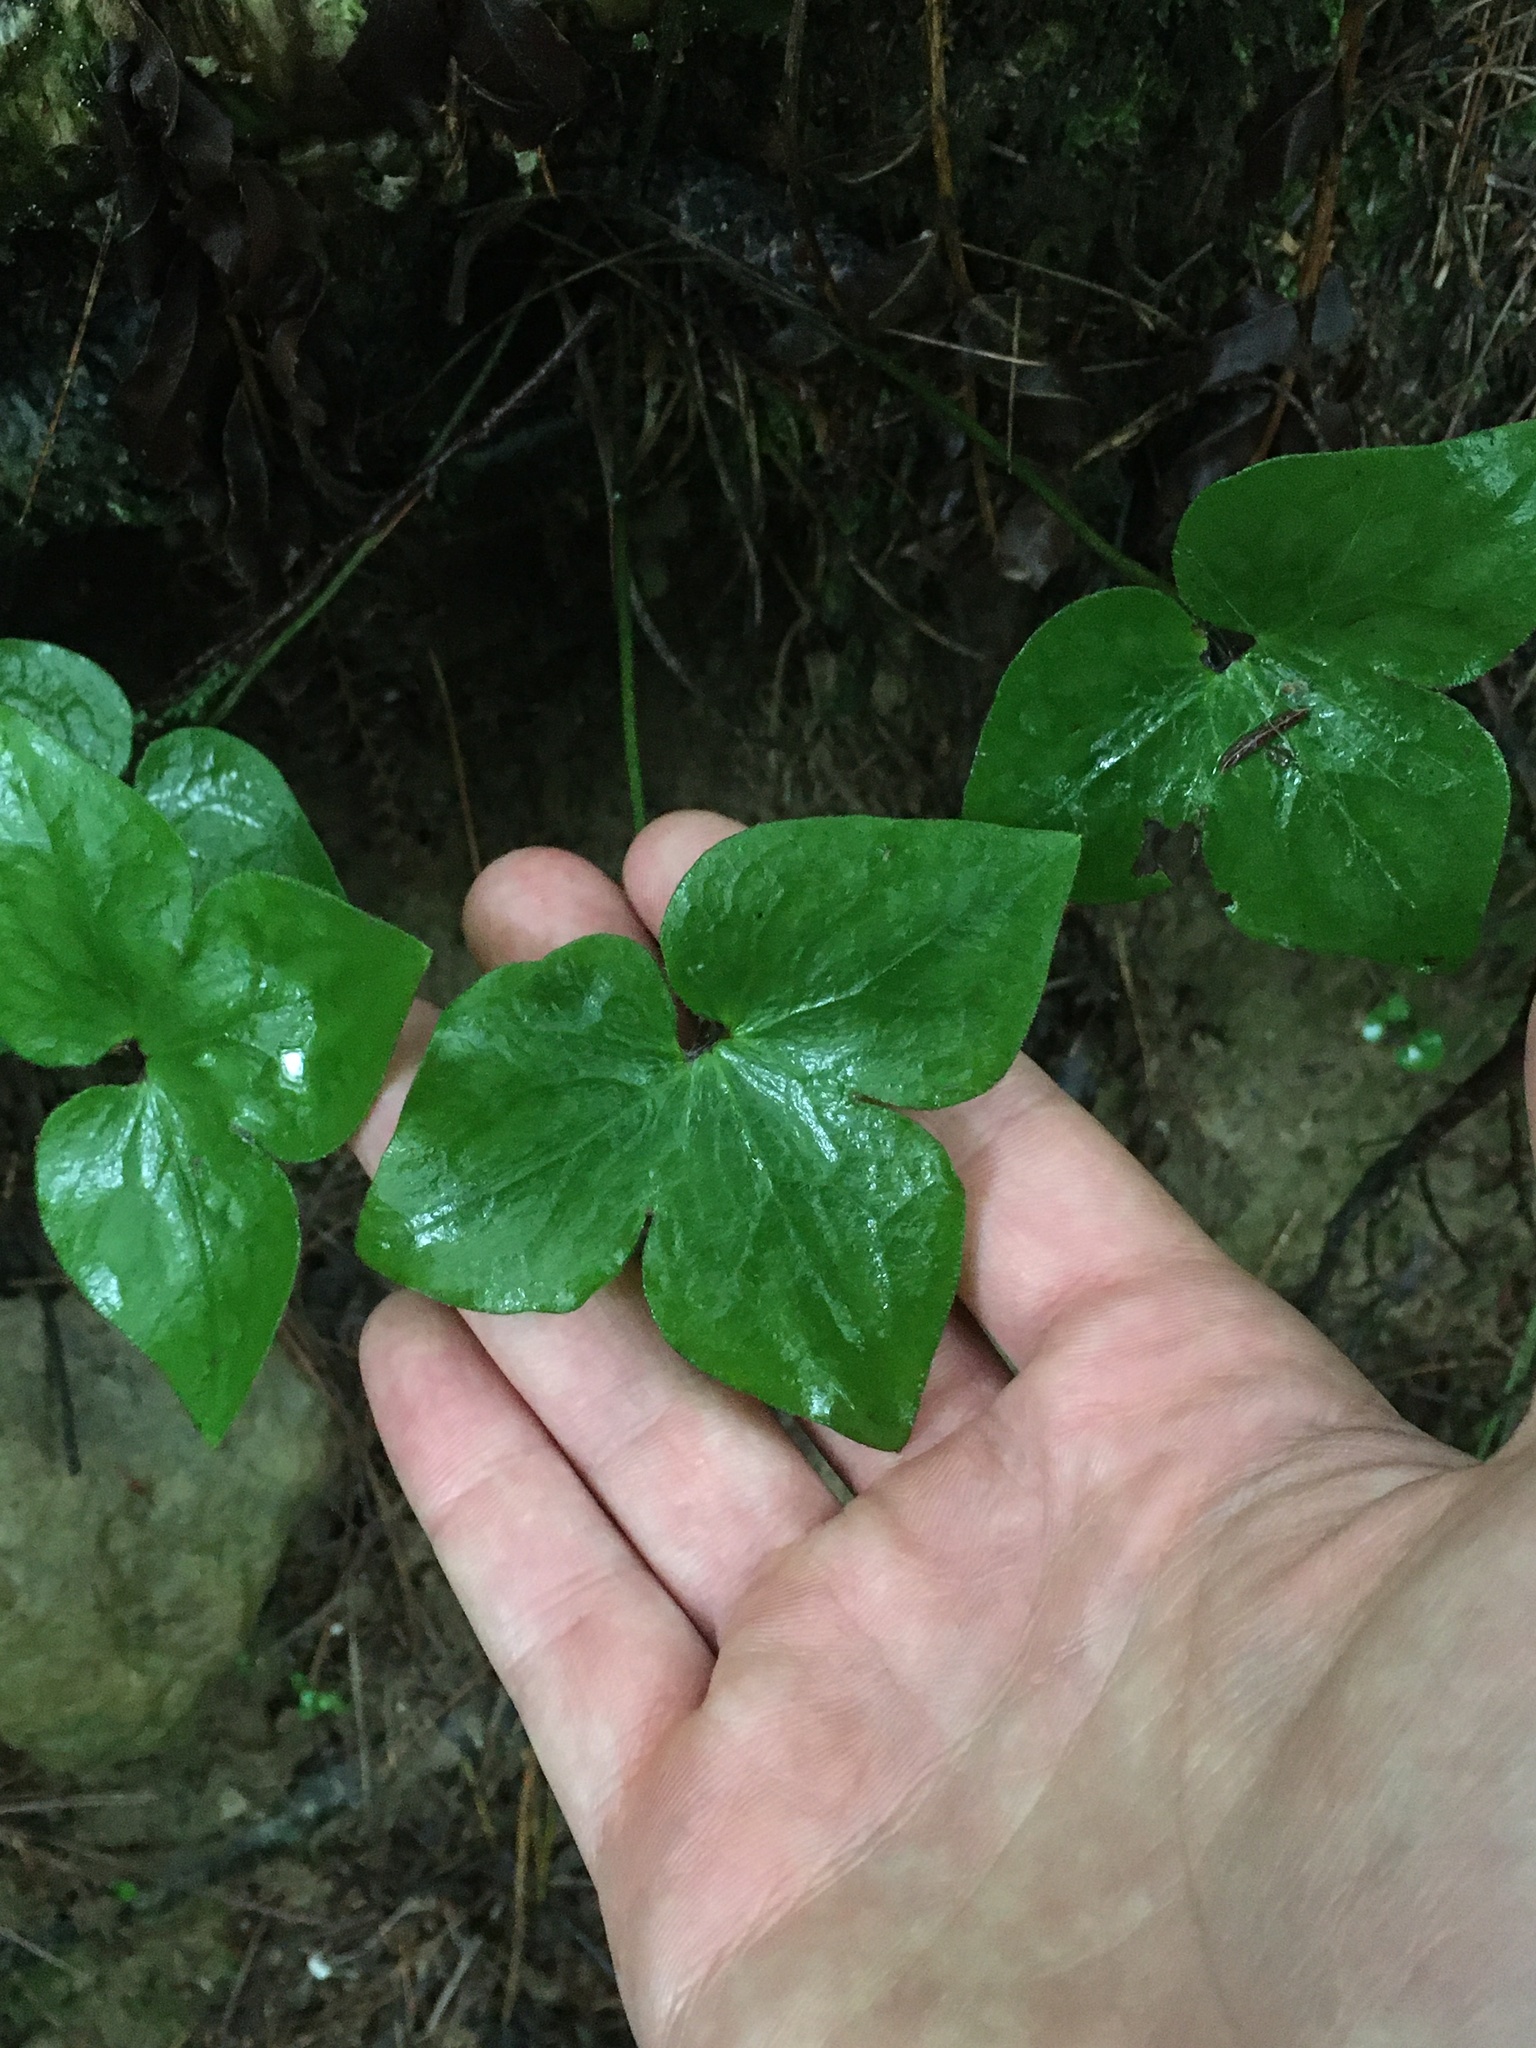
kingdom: Plantae
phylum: Tracheophyta
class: Magnoliopsida
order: Ranunculales
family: Ranunculaceae
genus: Hepatica
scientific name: Hepatica acutiloba
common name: Sharp-lobed hepatica
